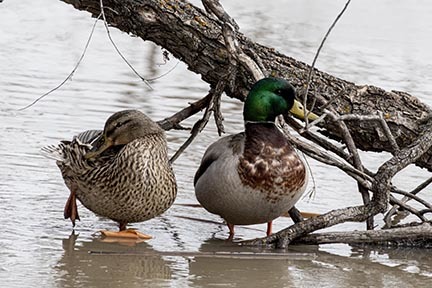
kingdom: Animalia
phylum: Chordata
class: Aves
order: Anseriformes
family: Anatidae
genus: Anas
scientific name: Anas platyrhynchos
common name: Mallard
